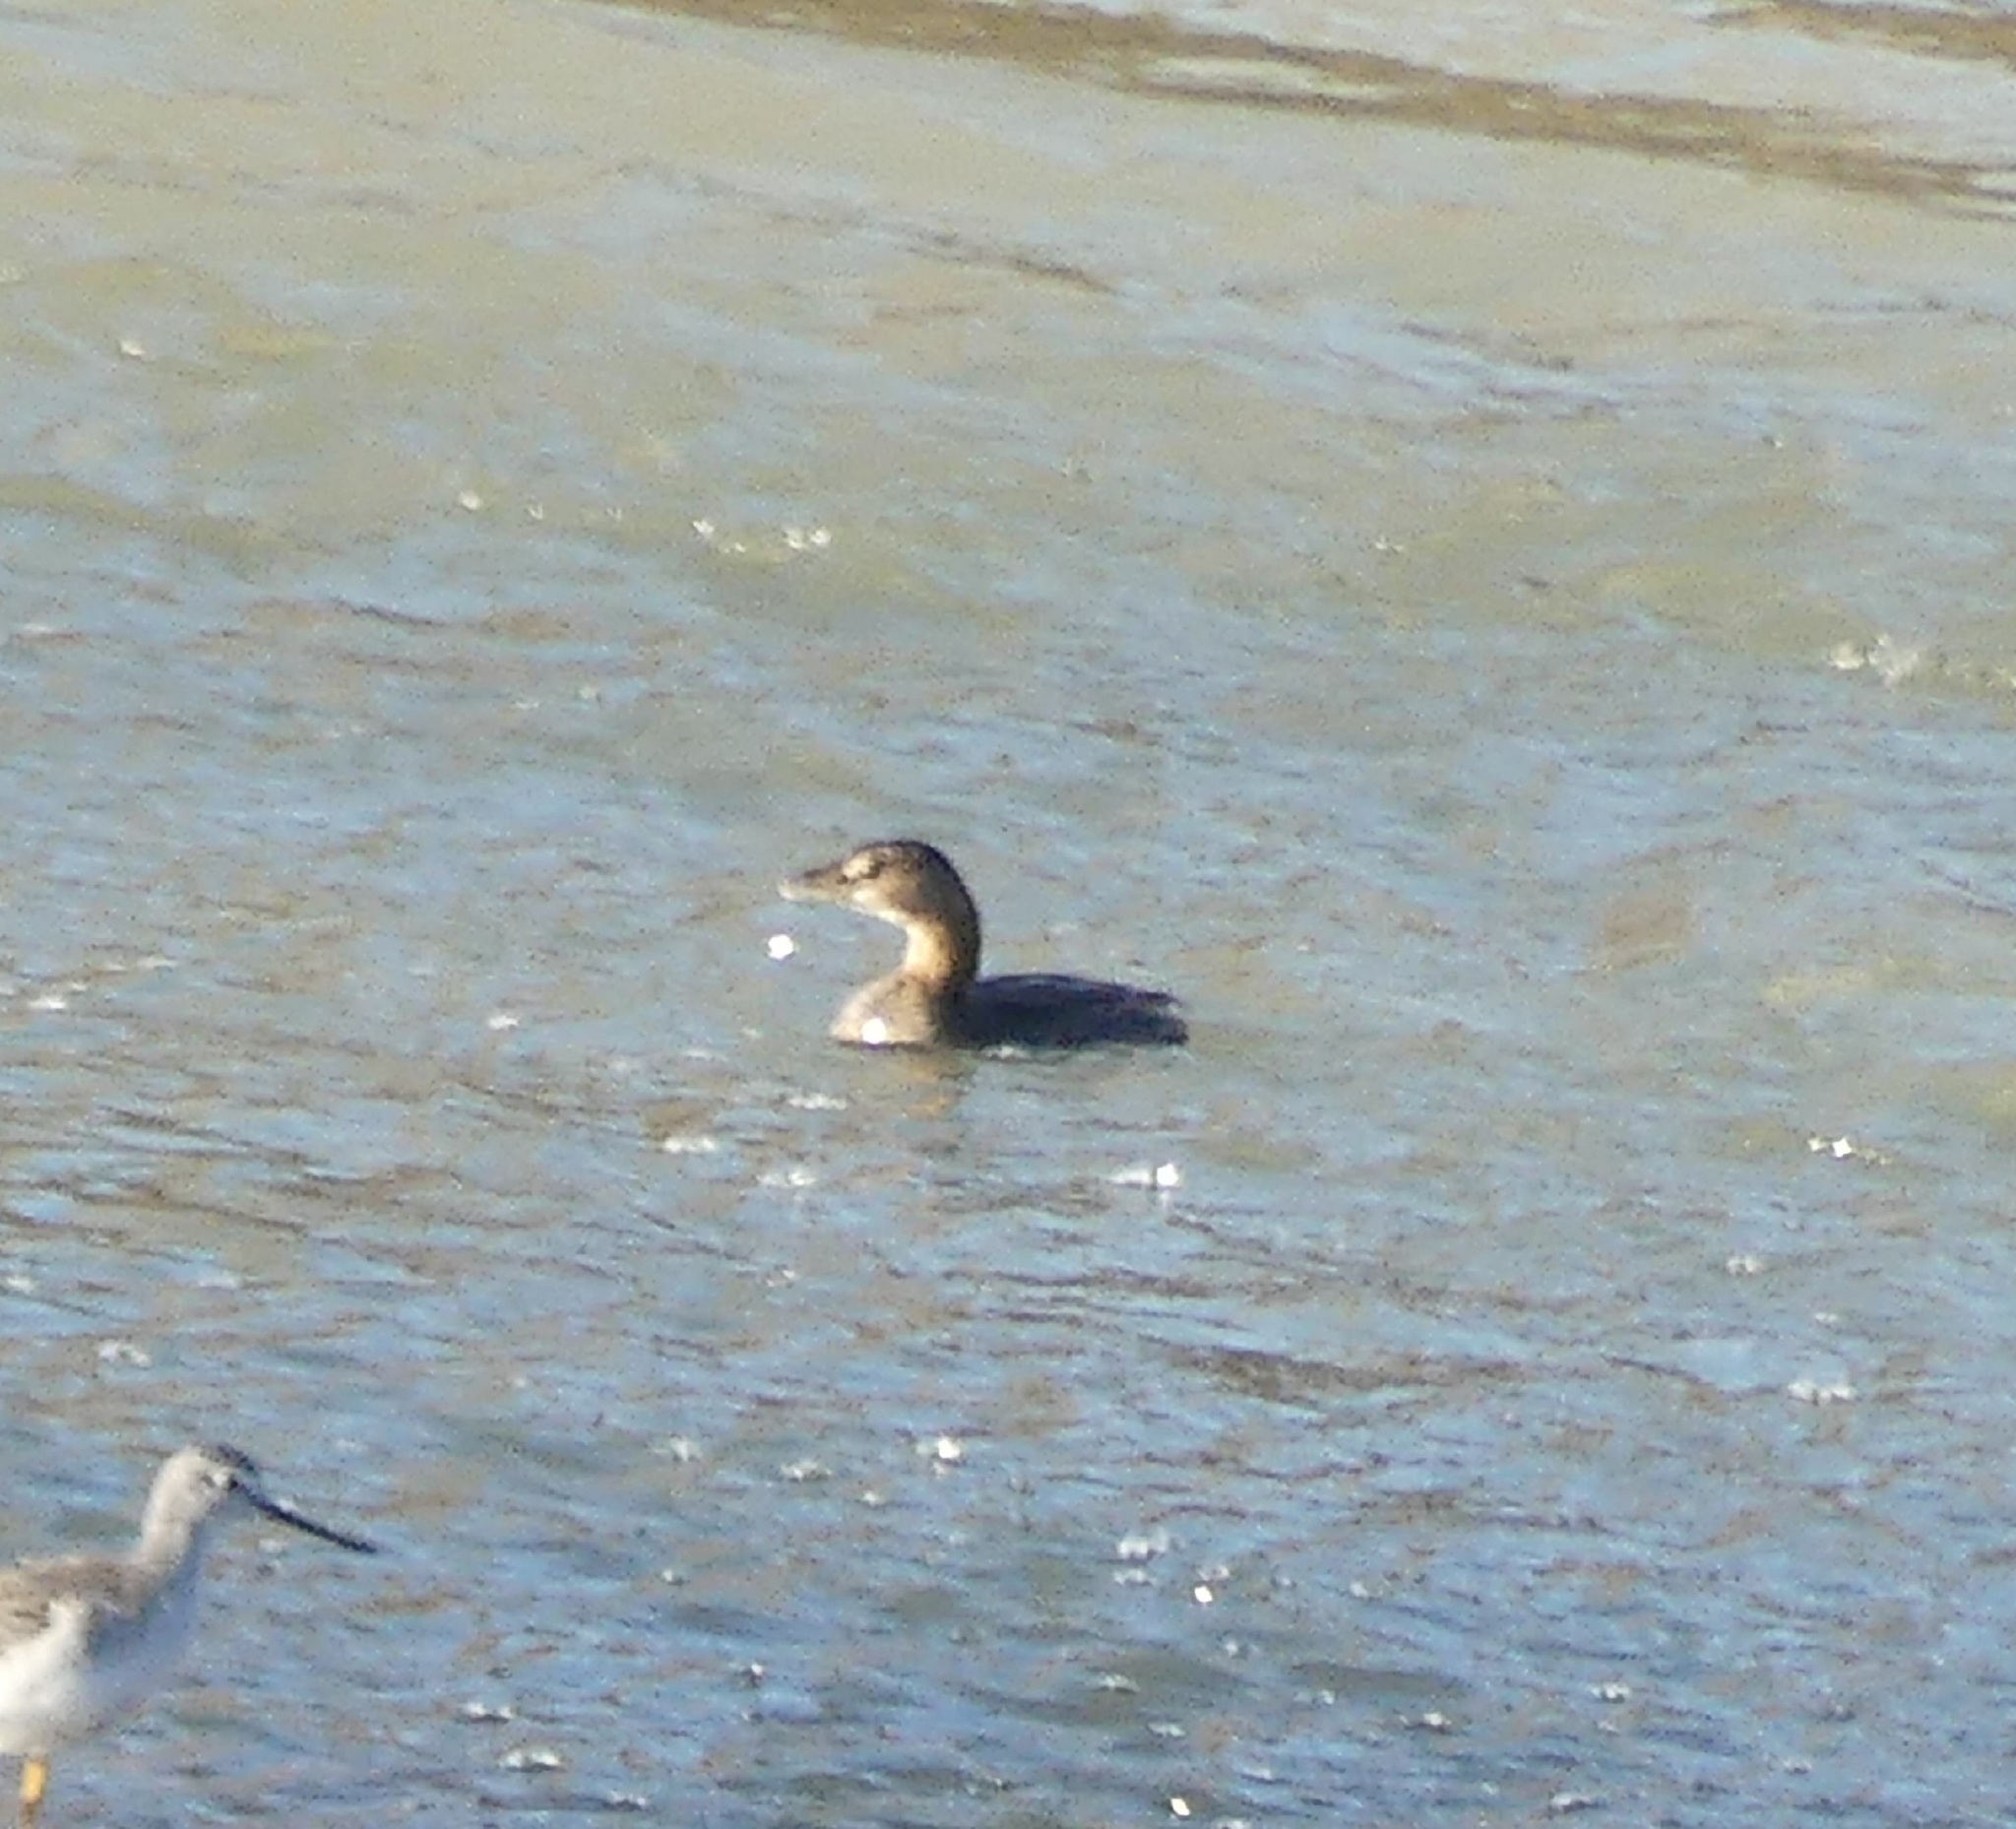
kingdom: Animalia
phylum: Chordata
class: Aves
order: Podicipediformes
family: Podicipedidae
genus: Podilymbus
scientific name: Podilymbus podiceps
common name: Pied-billed grebe
